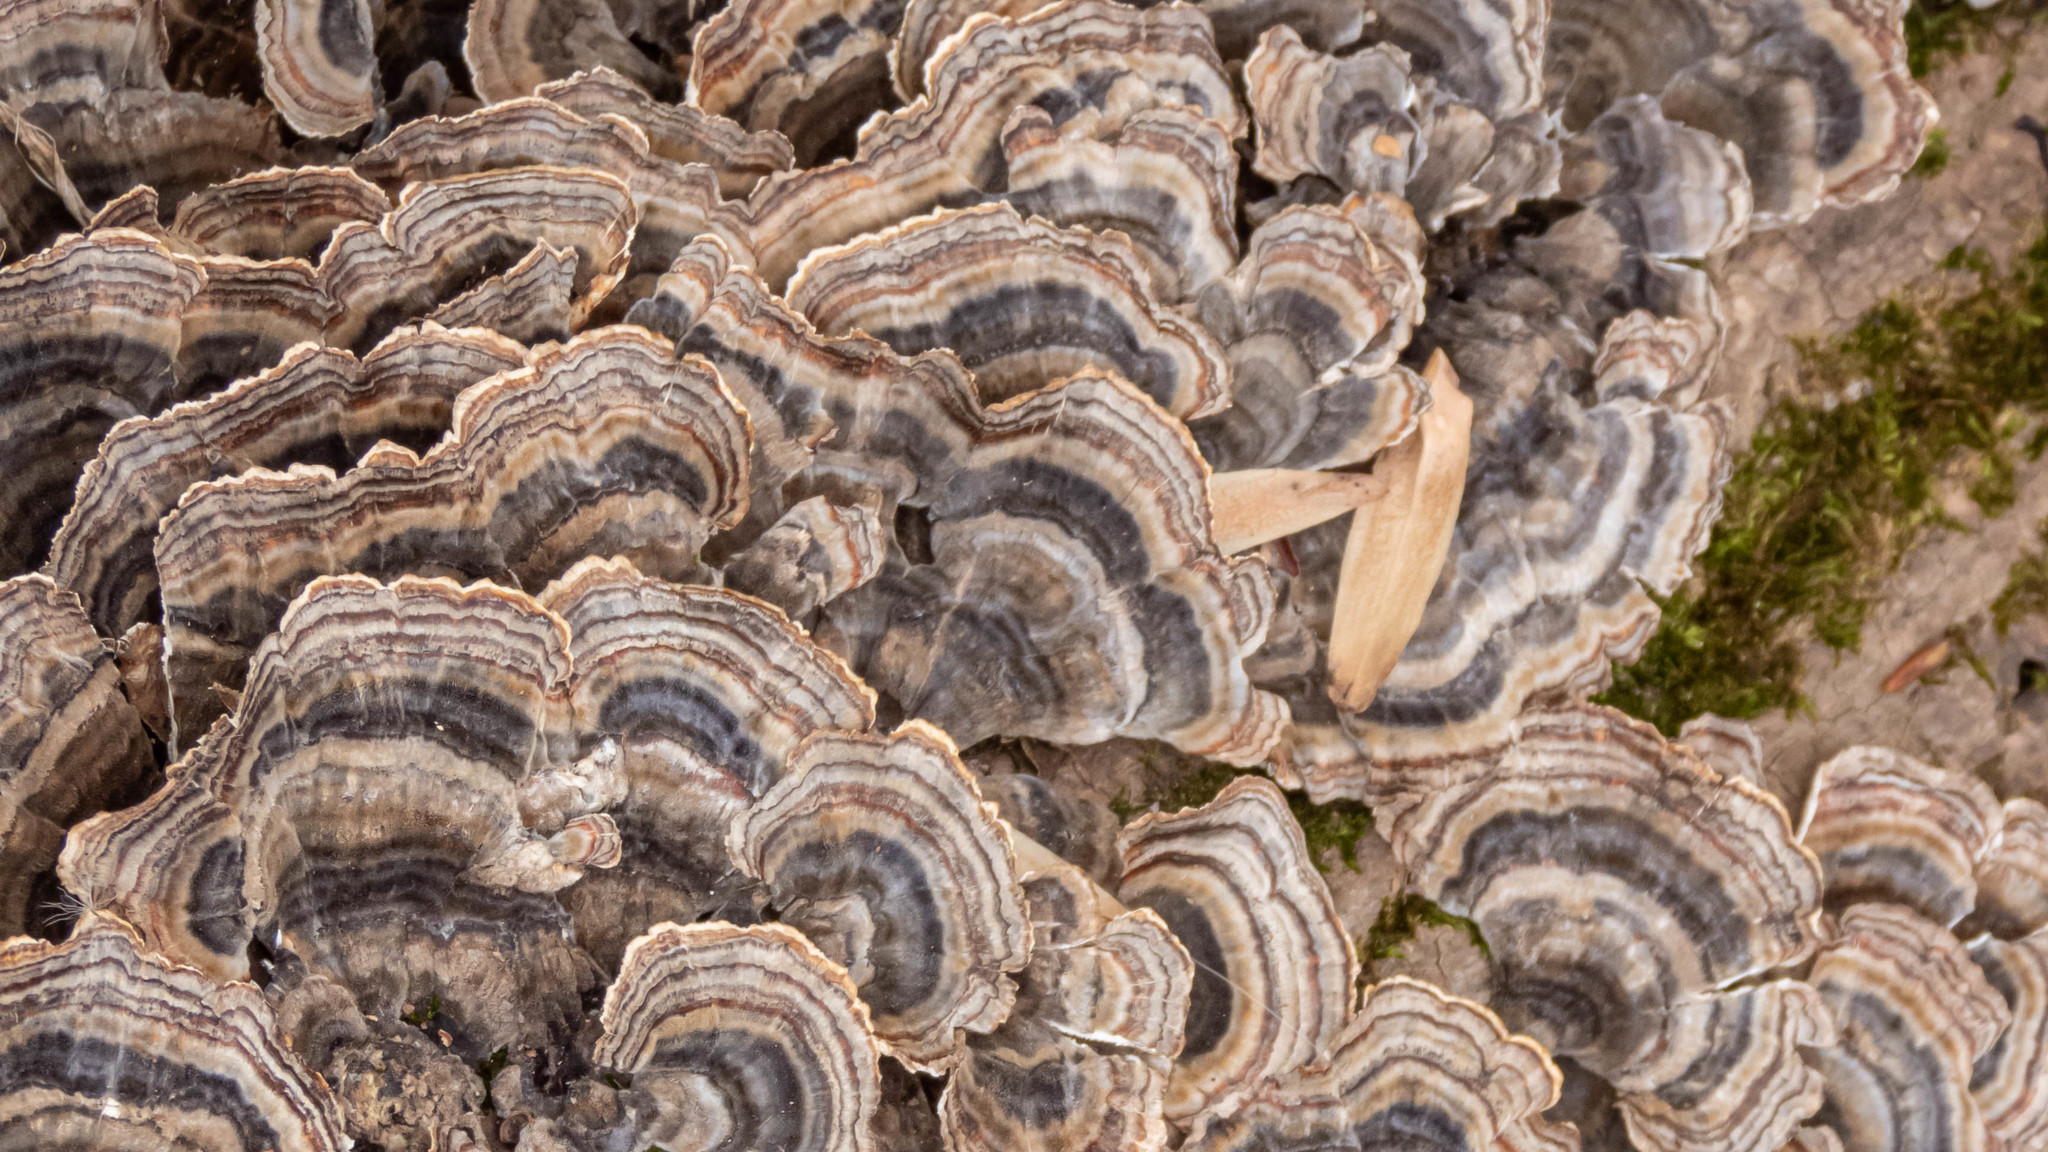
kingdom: Fungi
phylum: Basidiomycota
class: Agaricomycetes
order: Polyporales
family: Polyporaceae
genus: Trametes
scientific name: Trametes versicolor
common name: Turkeytail
